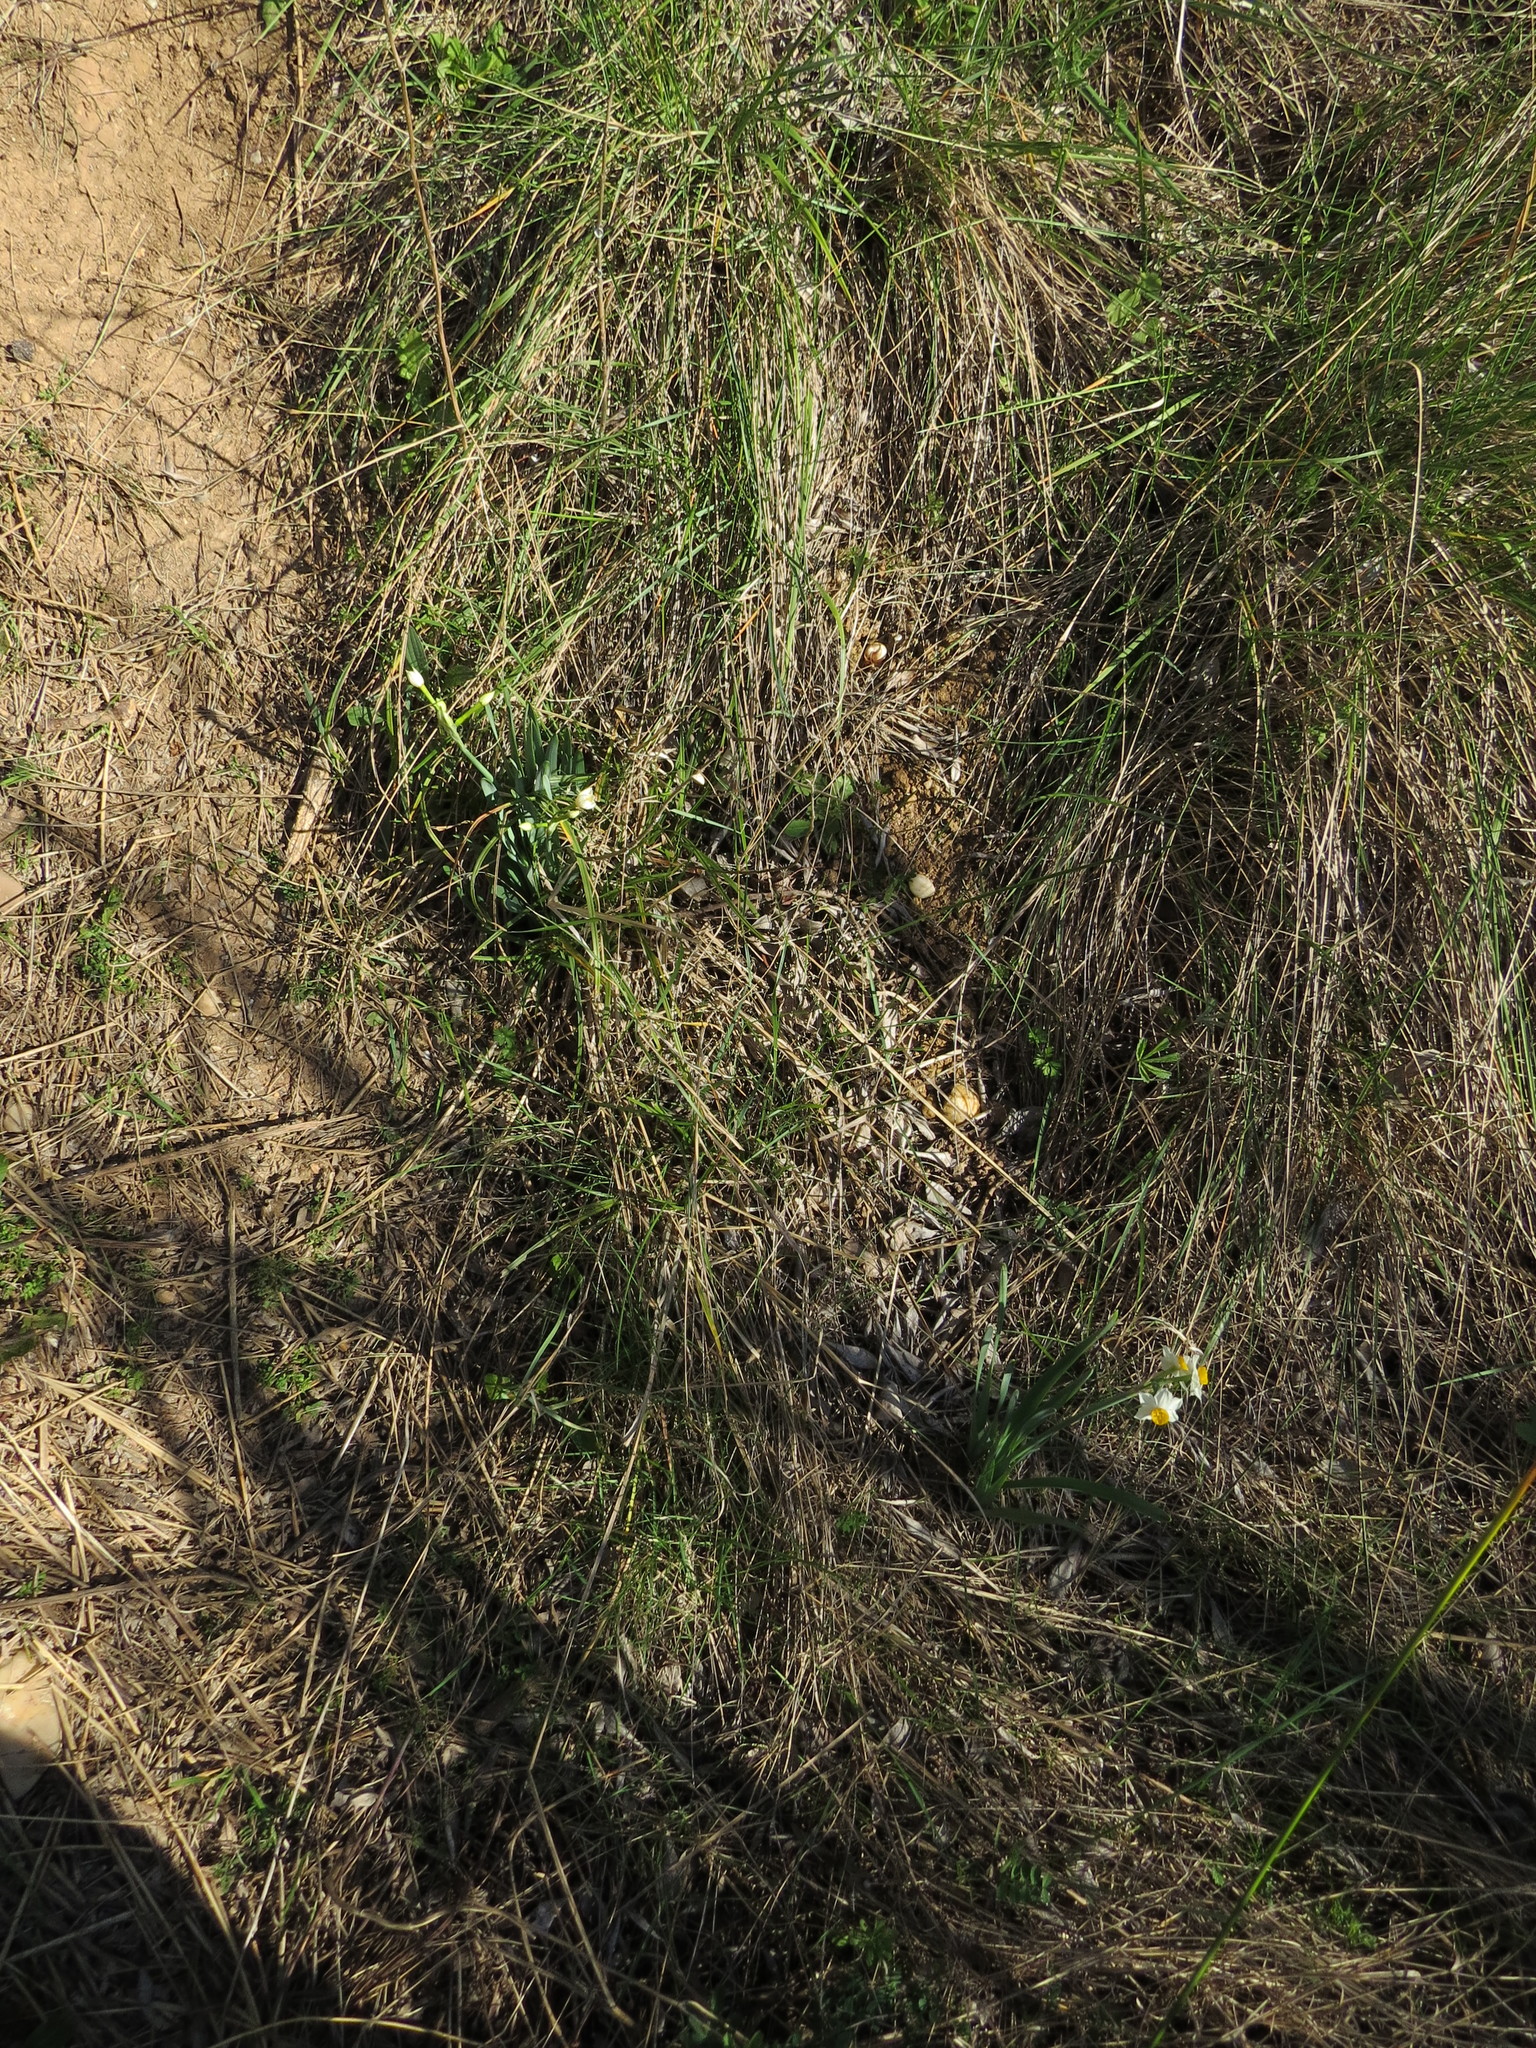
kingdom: Plantae
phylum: Tracheophyta
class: Liliopsida
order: Asparagales
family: Amaryllidaceae
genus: Narcissus
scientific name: Narcissus tazetta
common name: Bunch-flowered daffodil
